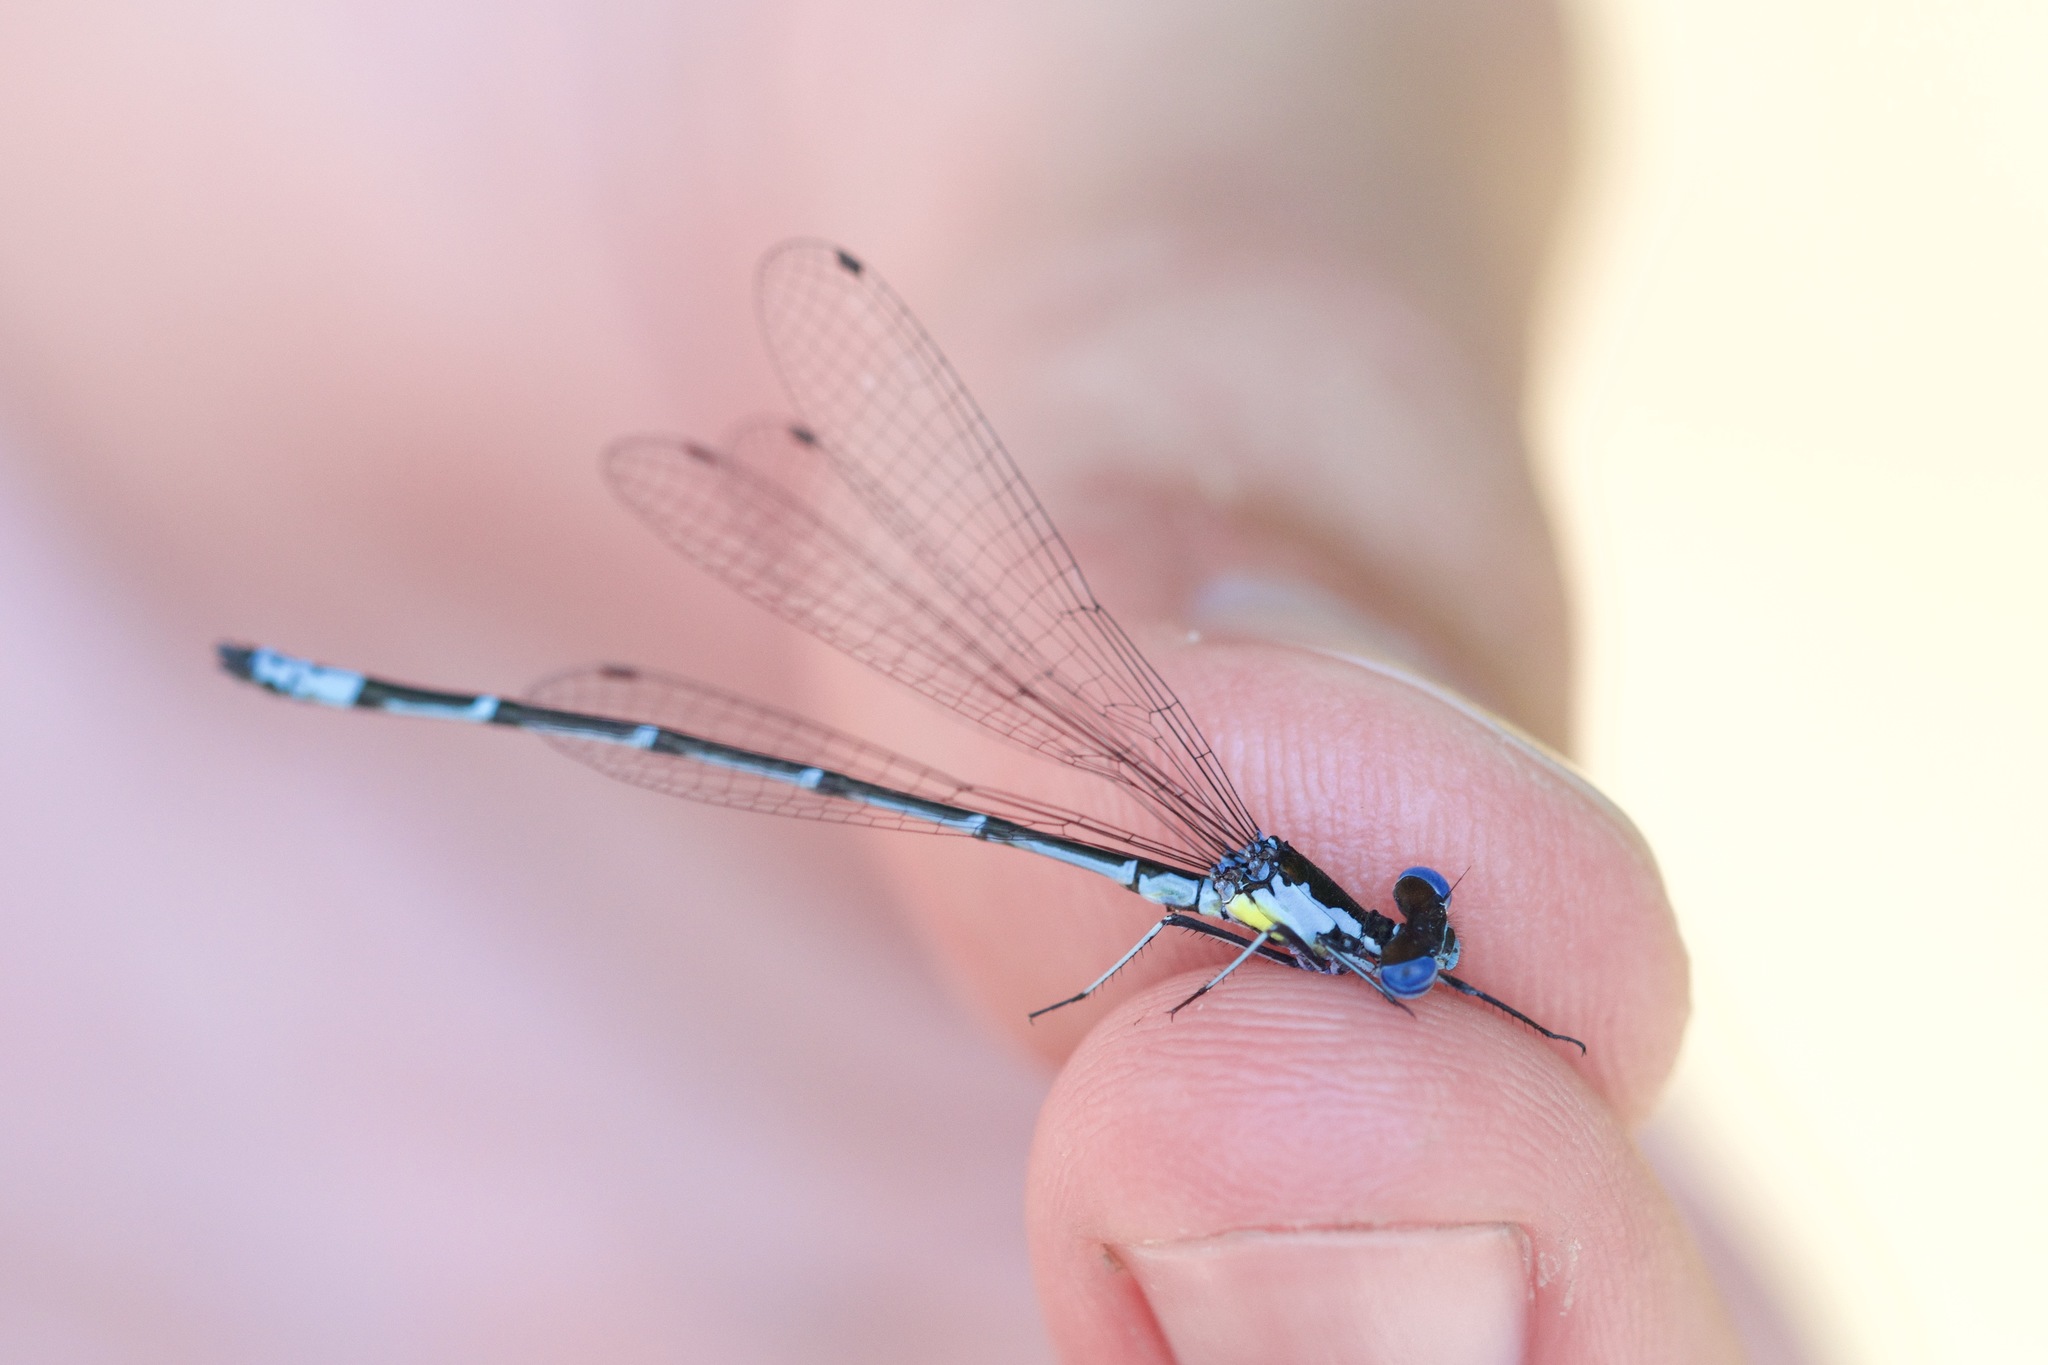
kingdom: Animalia
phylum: Arthropoda
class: Insecta
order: Odonata
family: Coenagrionidae
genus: Chromagrion
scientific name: Chromagrion conditum
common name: Aurora damsel
